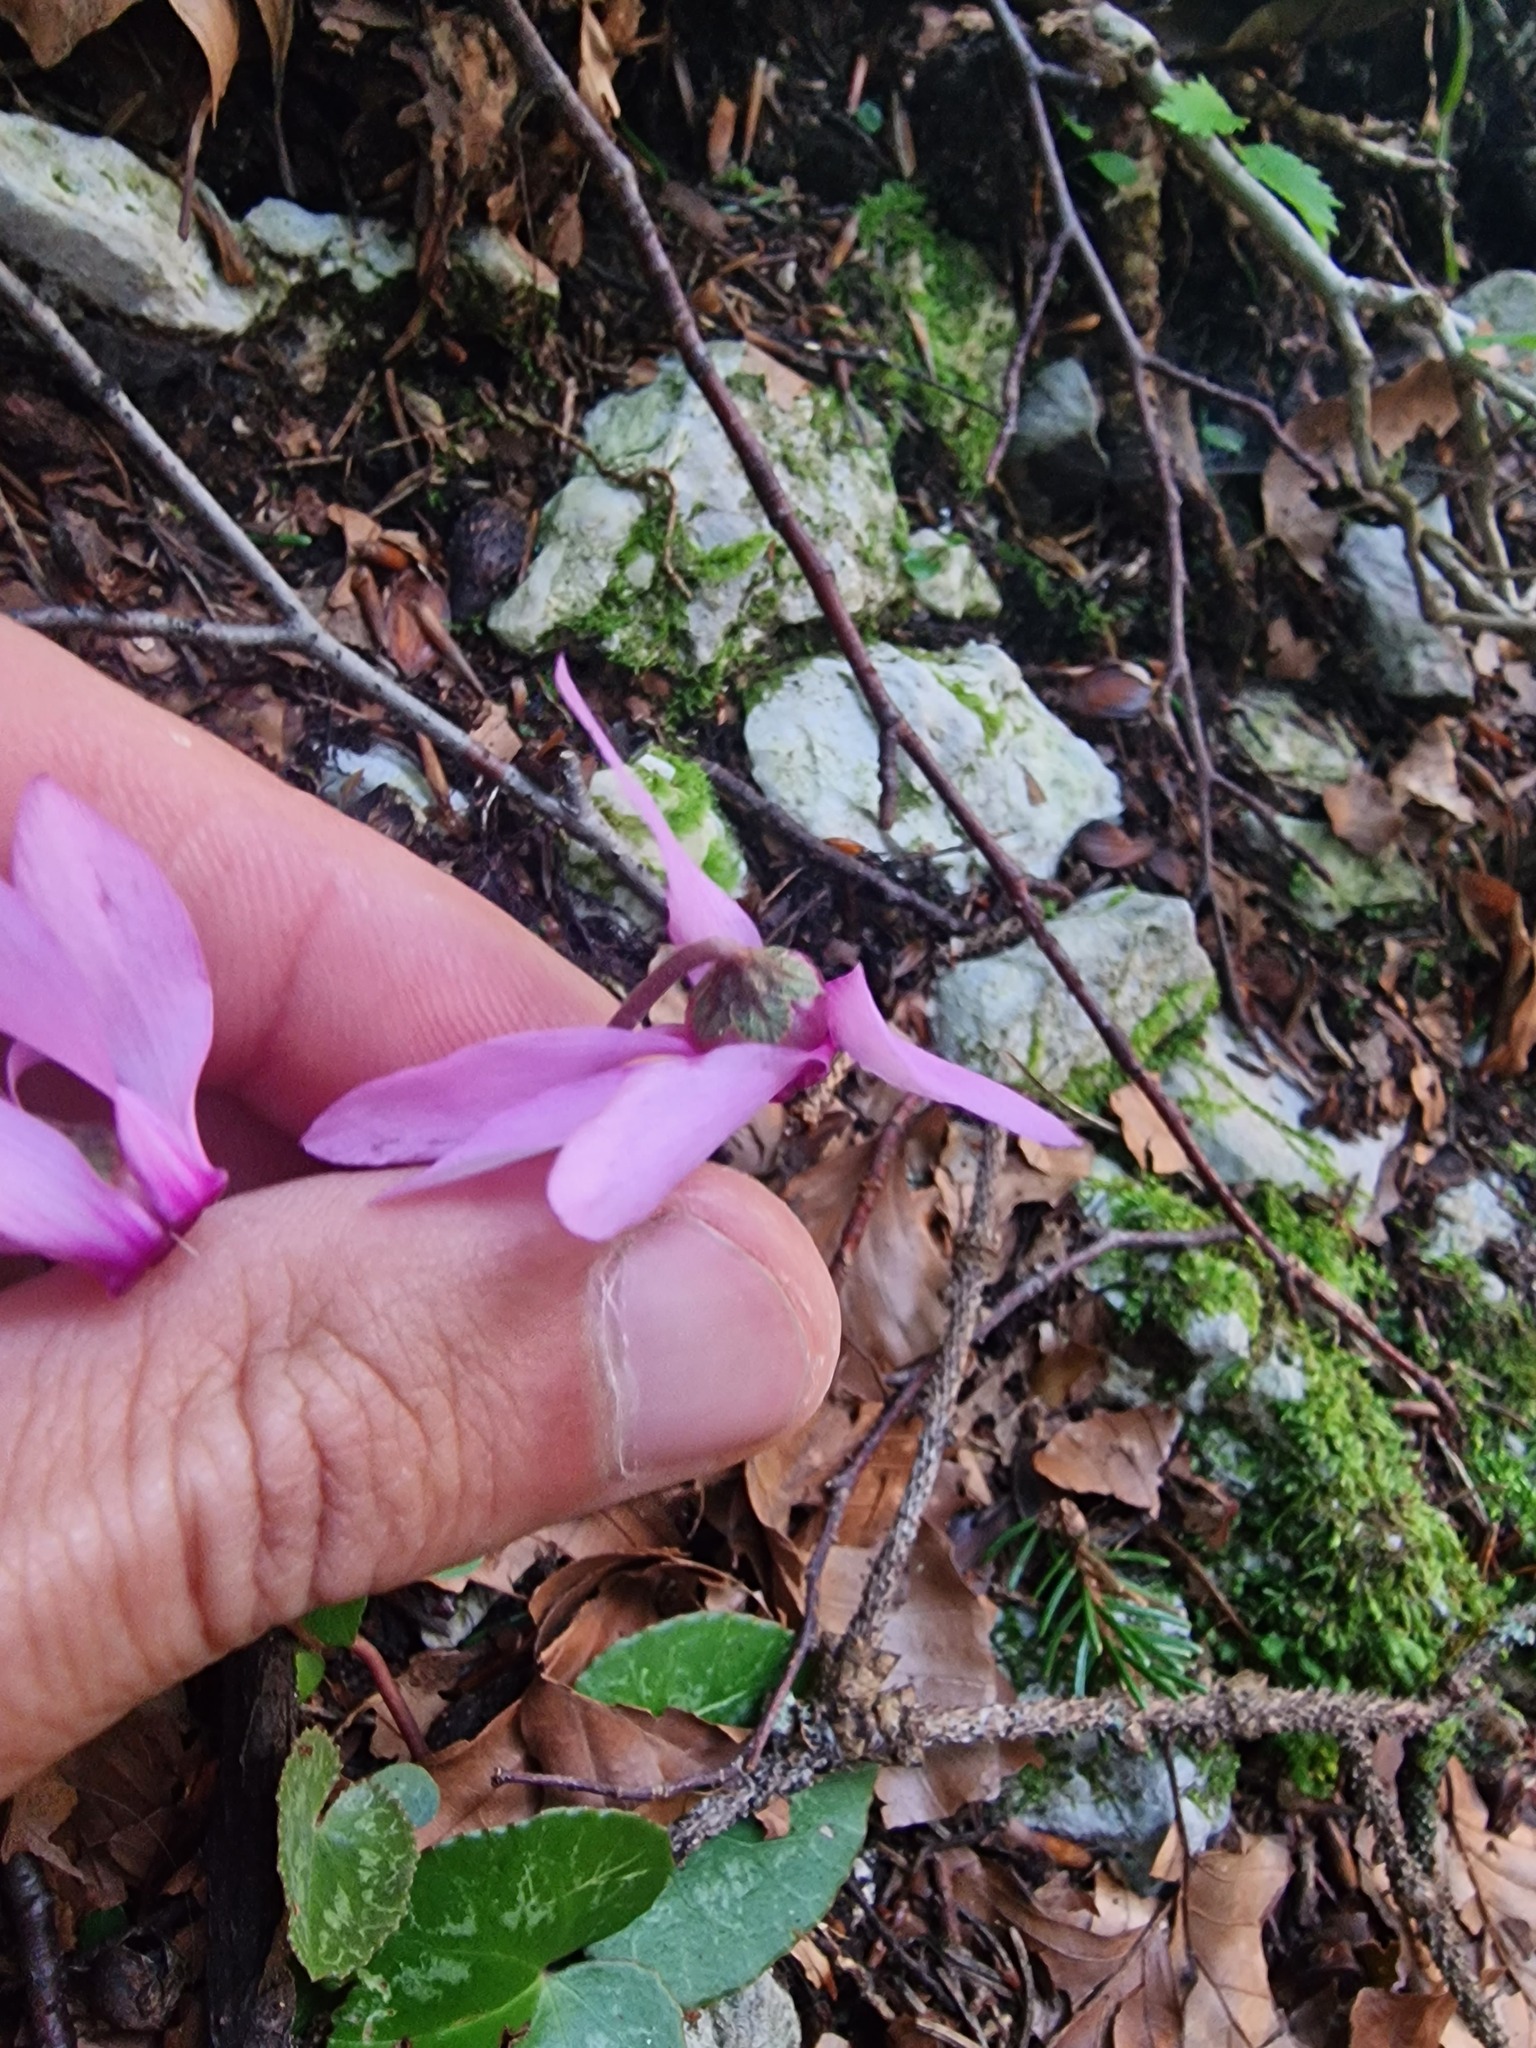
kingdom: Plantae
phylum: Tracheophyta
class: Magnoliopsida
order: Ericales
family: Primulaceae
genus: Cyclamen
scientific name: Cyclamen purpurascens
